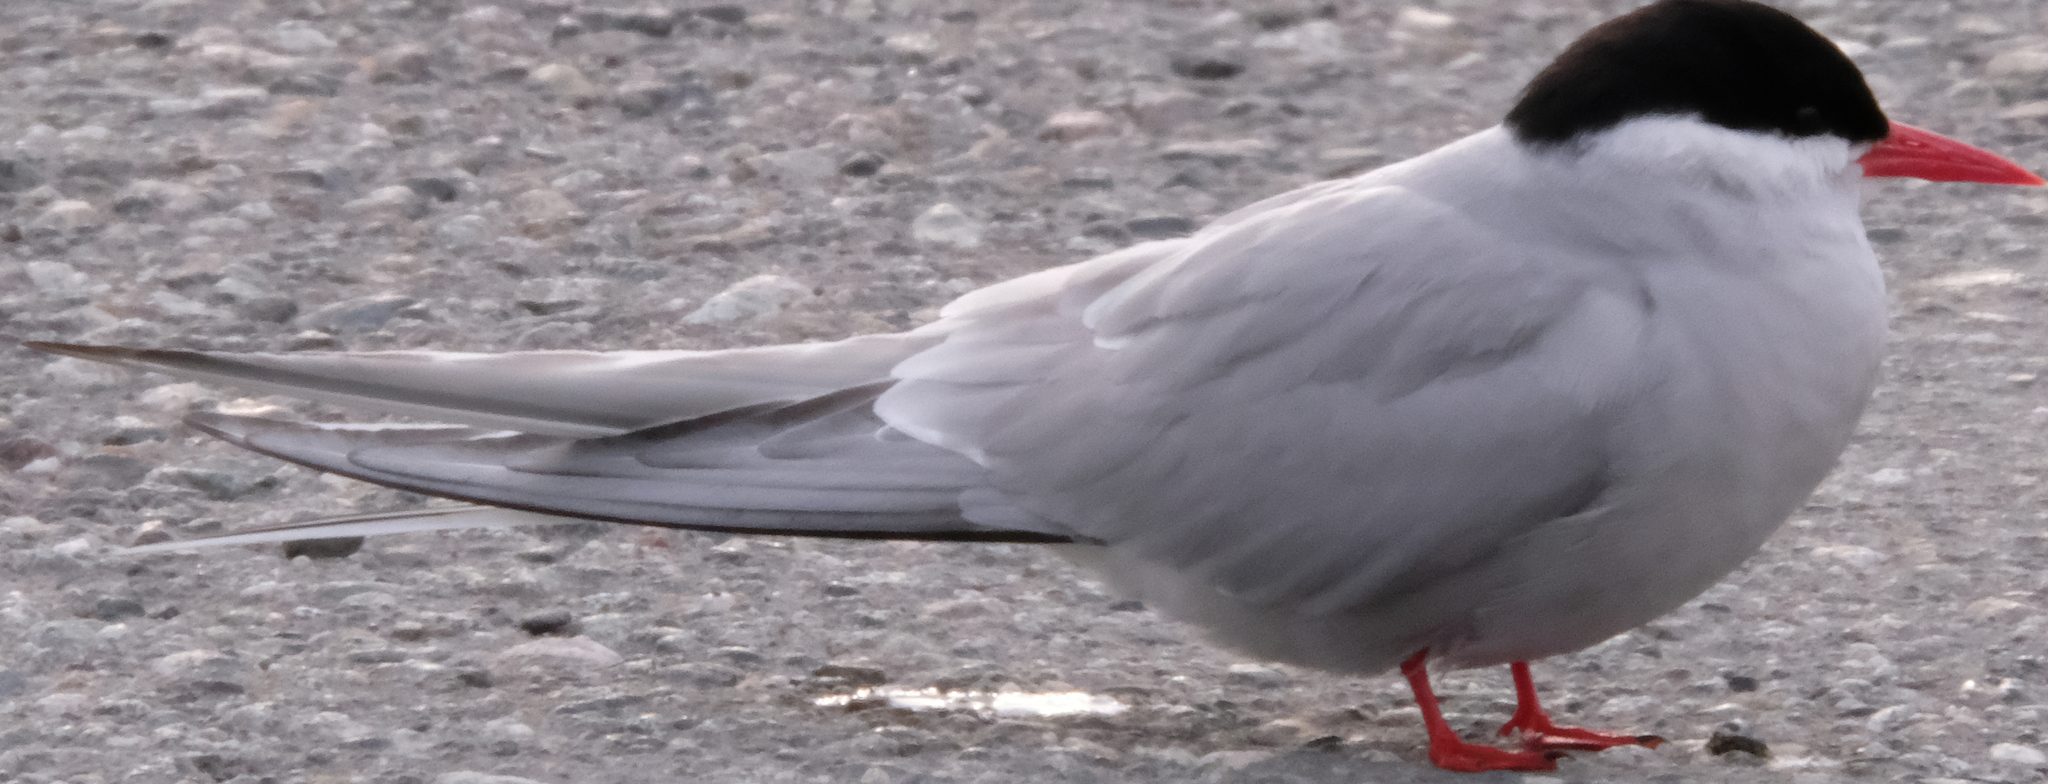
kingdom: Animalia
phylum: Chordata
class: Aves
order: Charadriiformes
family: Laridae
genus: Sterna
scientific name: Sterna paradisaea
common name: Arctic tern
